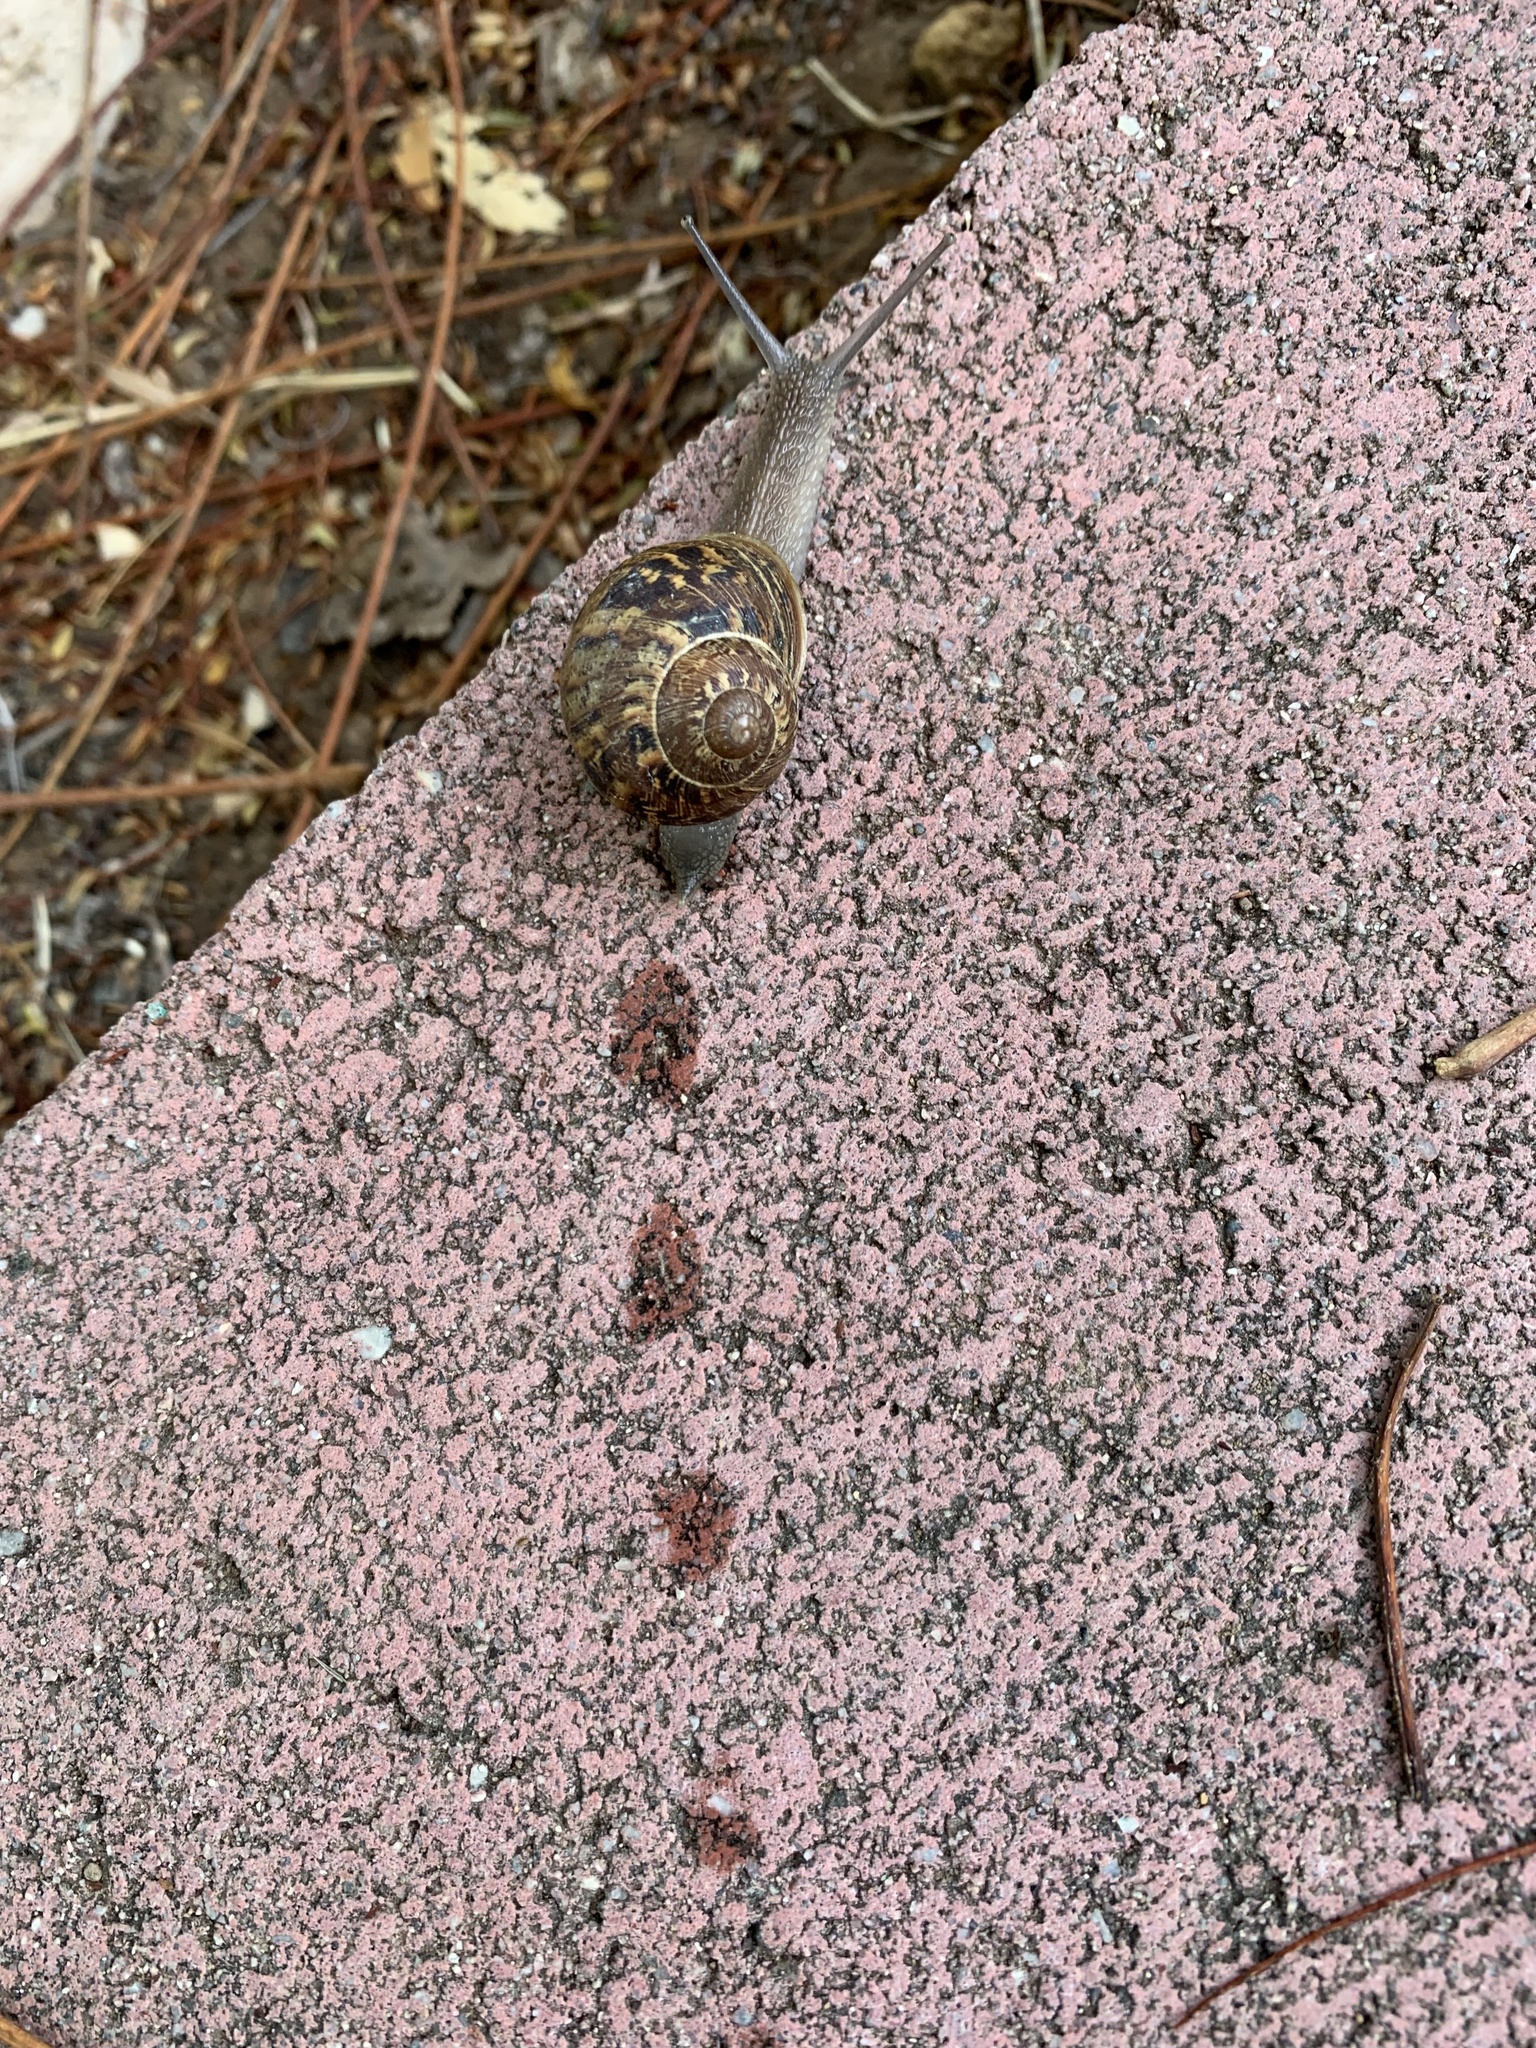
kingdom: Animalia
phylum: Mollusca
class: Gastropoda
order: Stylommatophora
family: Helicidae
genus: Cornu
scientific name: Cornu aspersum
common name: Brown garden snail
